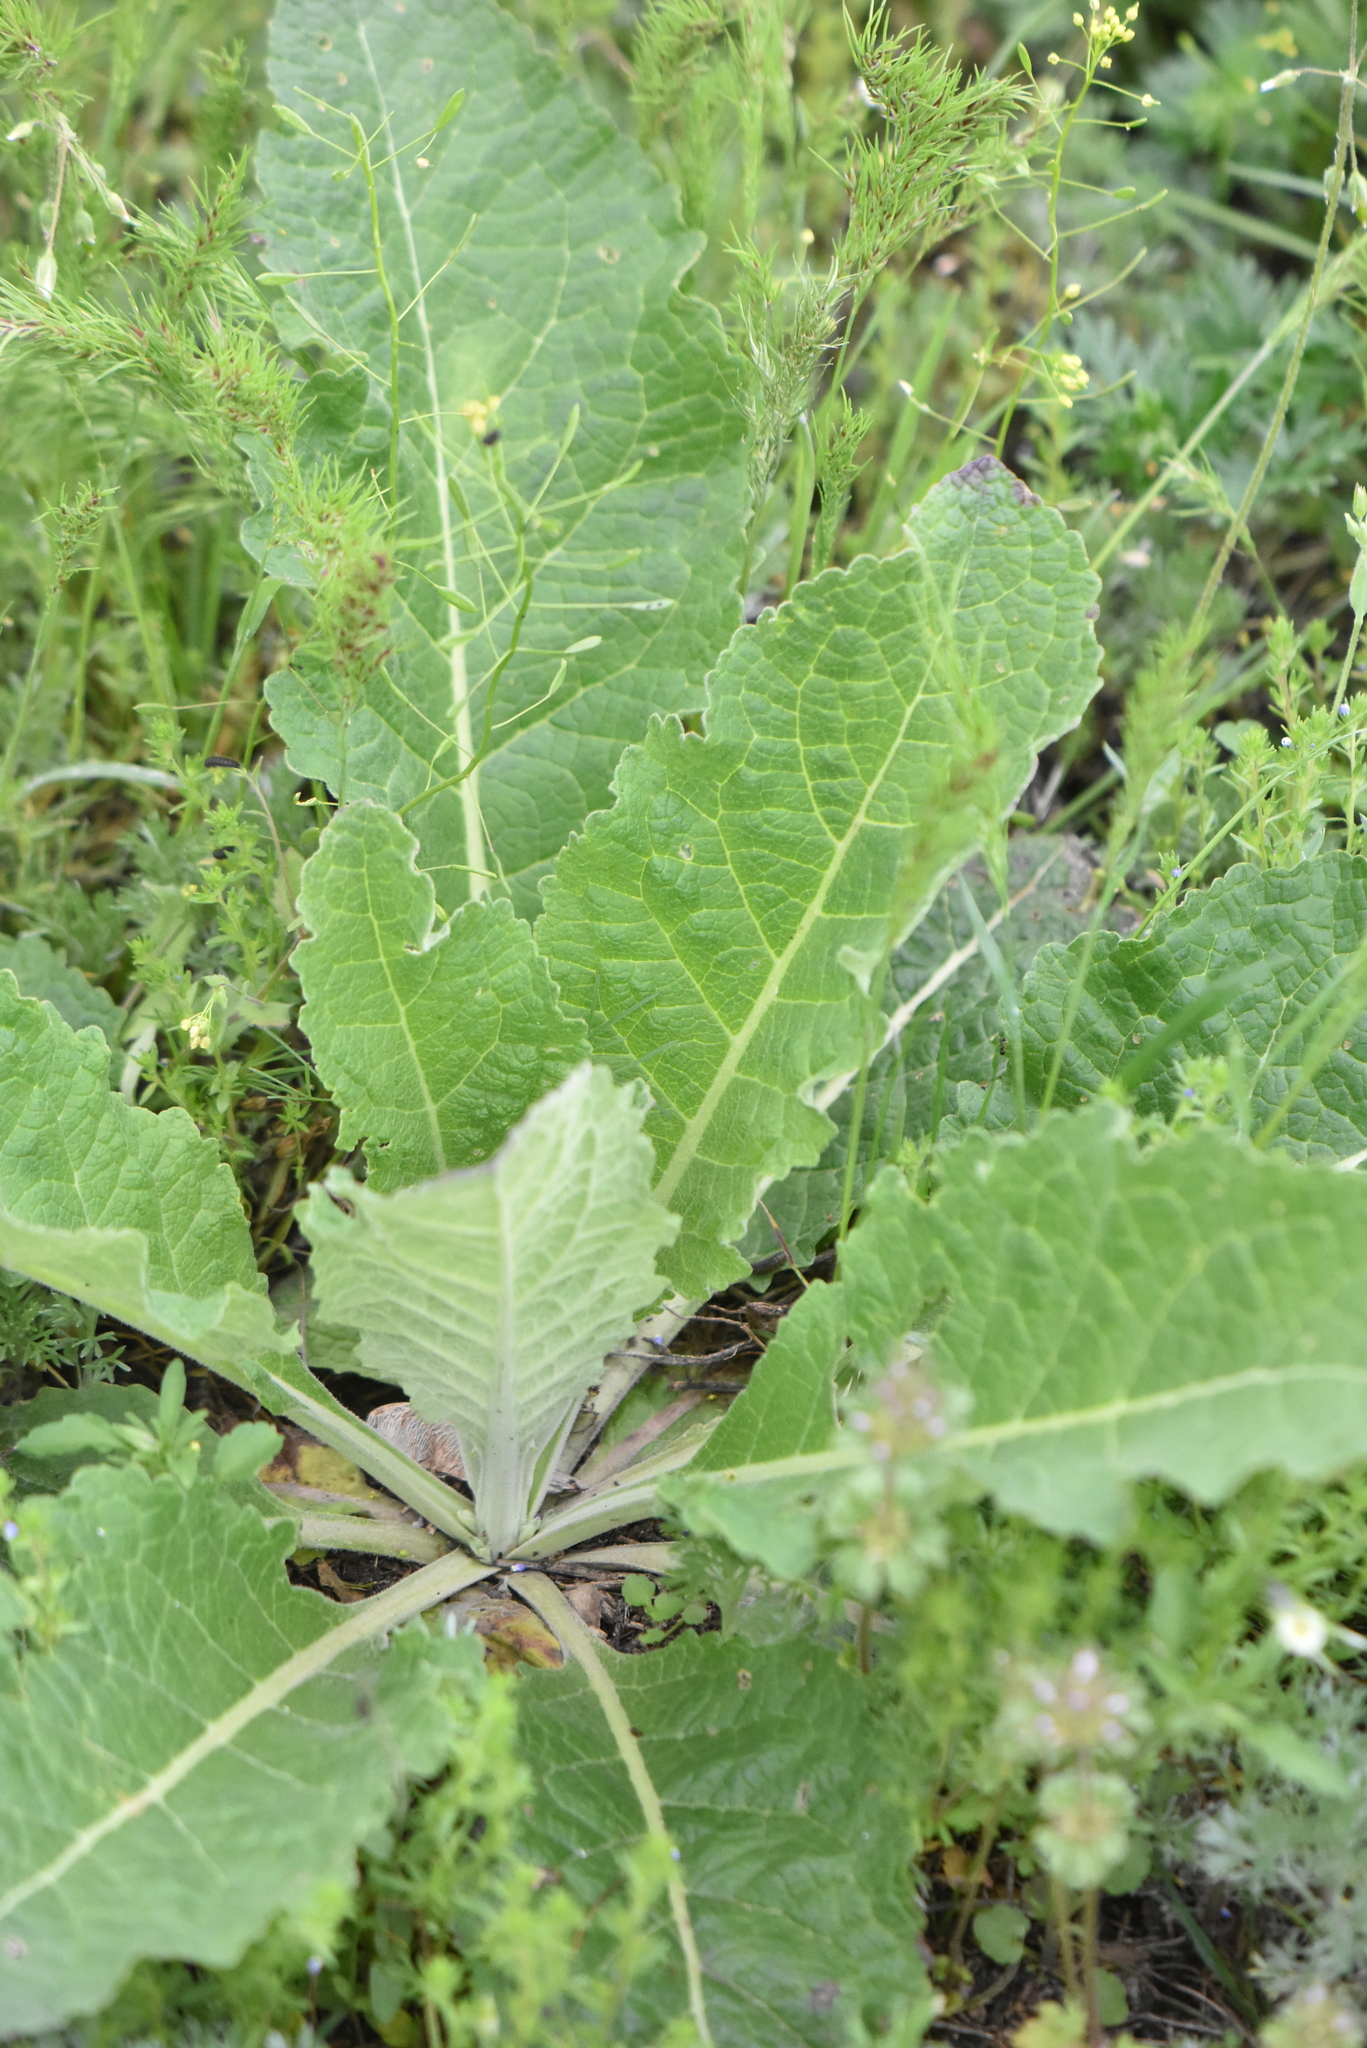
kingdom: Plantae
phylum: Tracheophyta
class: Magnoliopsida
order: Lamiales
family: Scrophulariaceae
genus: Verbascum
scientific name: Verbascum lychnitis
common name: White mullein
